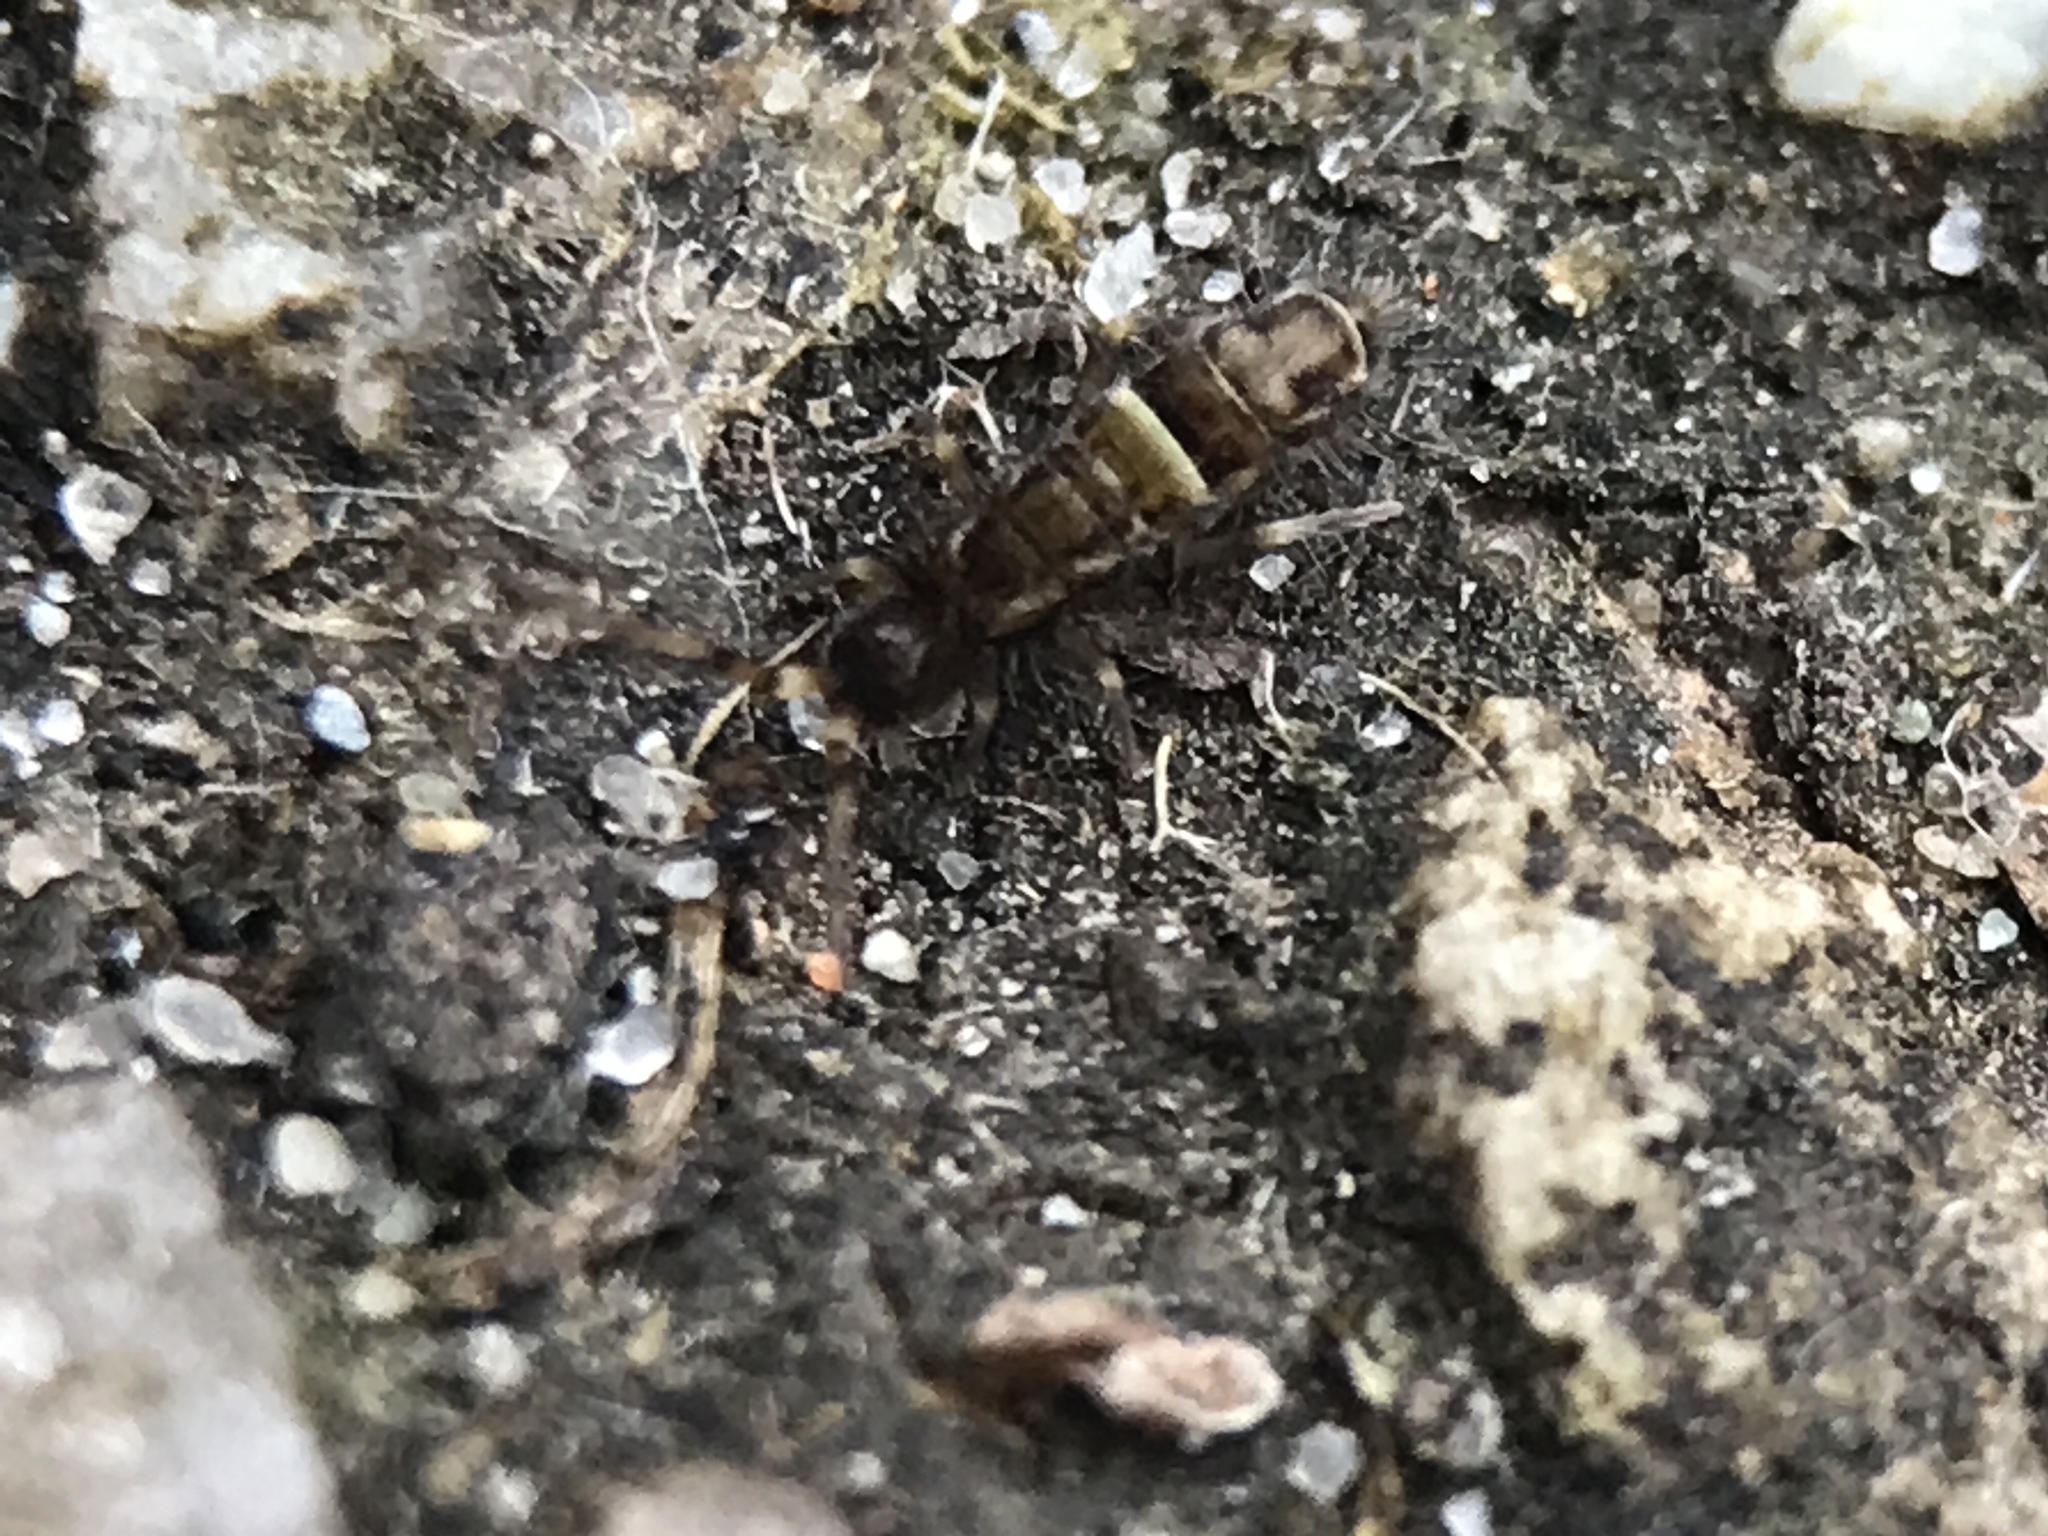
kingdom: Animalia
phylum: Arthropoda
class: Collembola
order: Entomobryomorpha
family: Orchesellidae
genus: Orchesella
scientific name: Orchesella cincta
